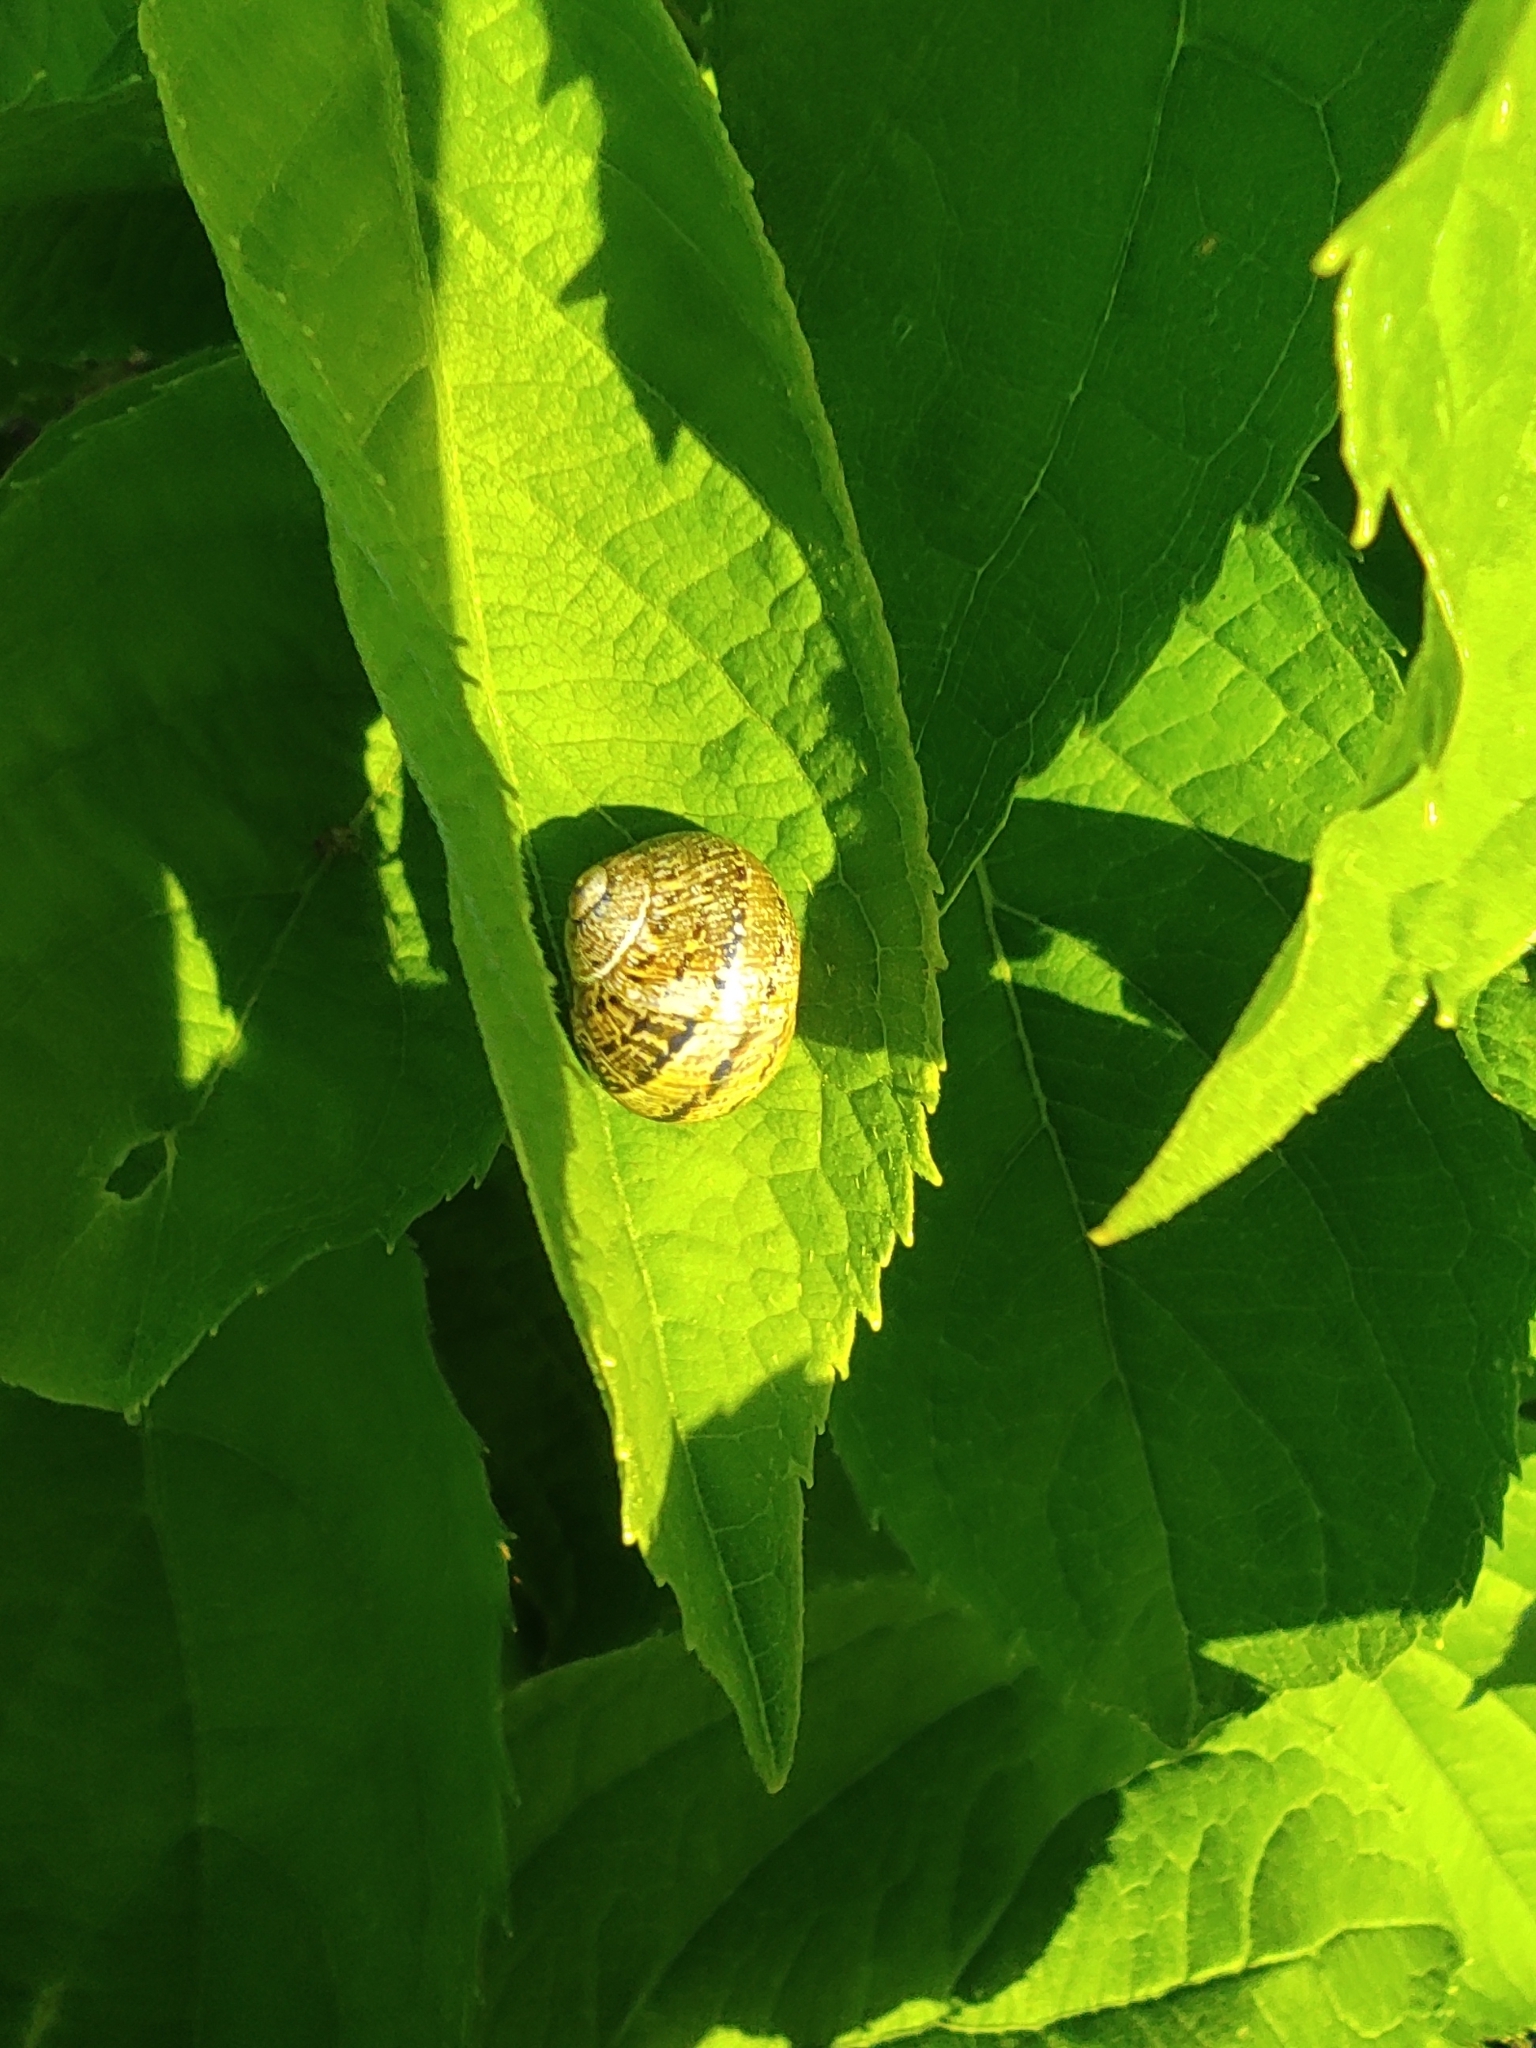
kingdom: Animalia
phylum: Mollusca
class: Gastropoda
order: Stylommatophora
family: Helicidae
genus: Cornu
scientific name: Cornu aspersum
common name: Brown garden snail
